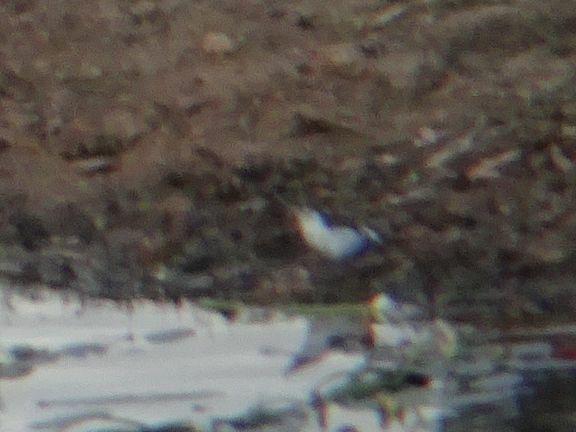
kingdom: Animalia
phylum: Chordata
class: Aves
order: Charadriiformes
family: Charadriidae
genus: Charadrius
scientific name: Charadrius tricollaris
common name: Three-banded plover
